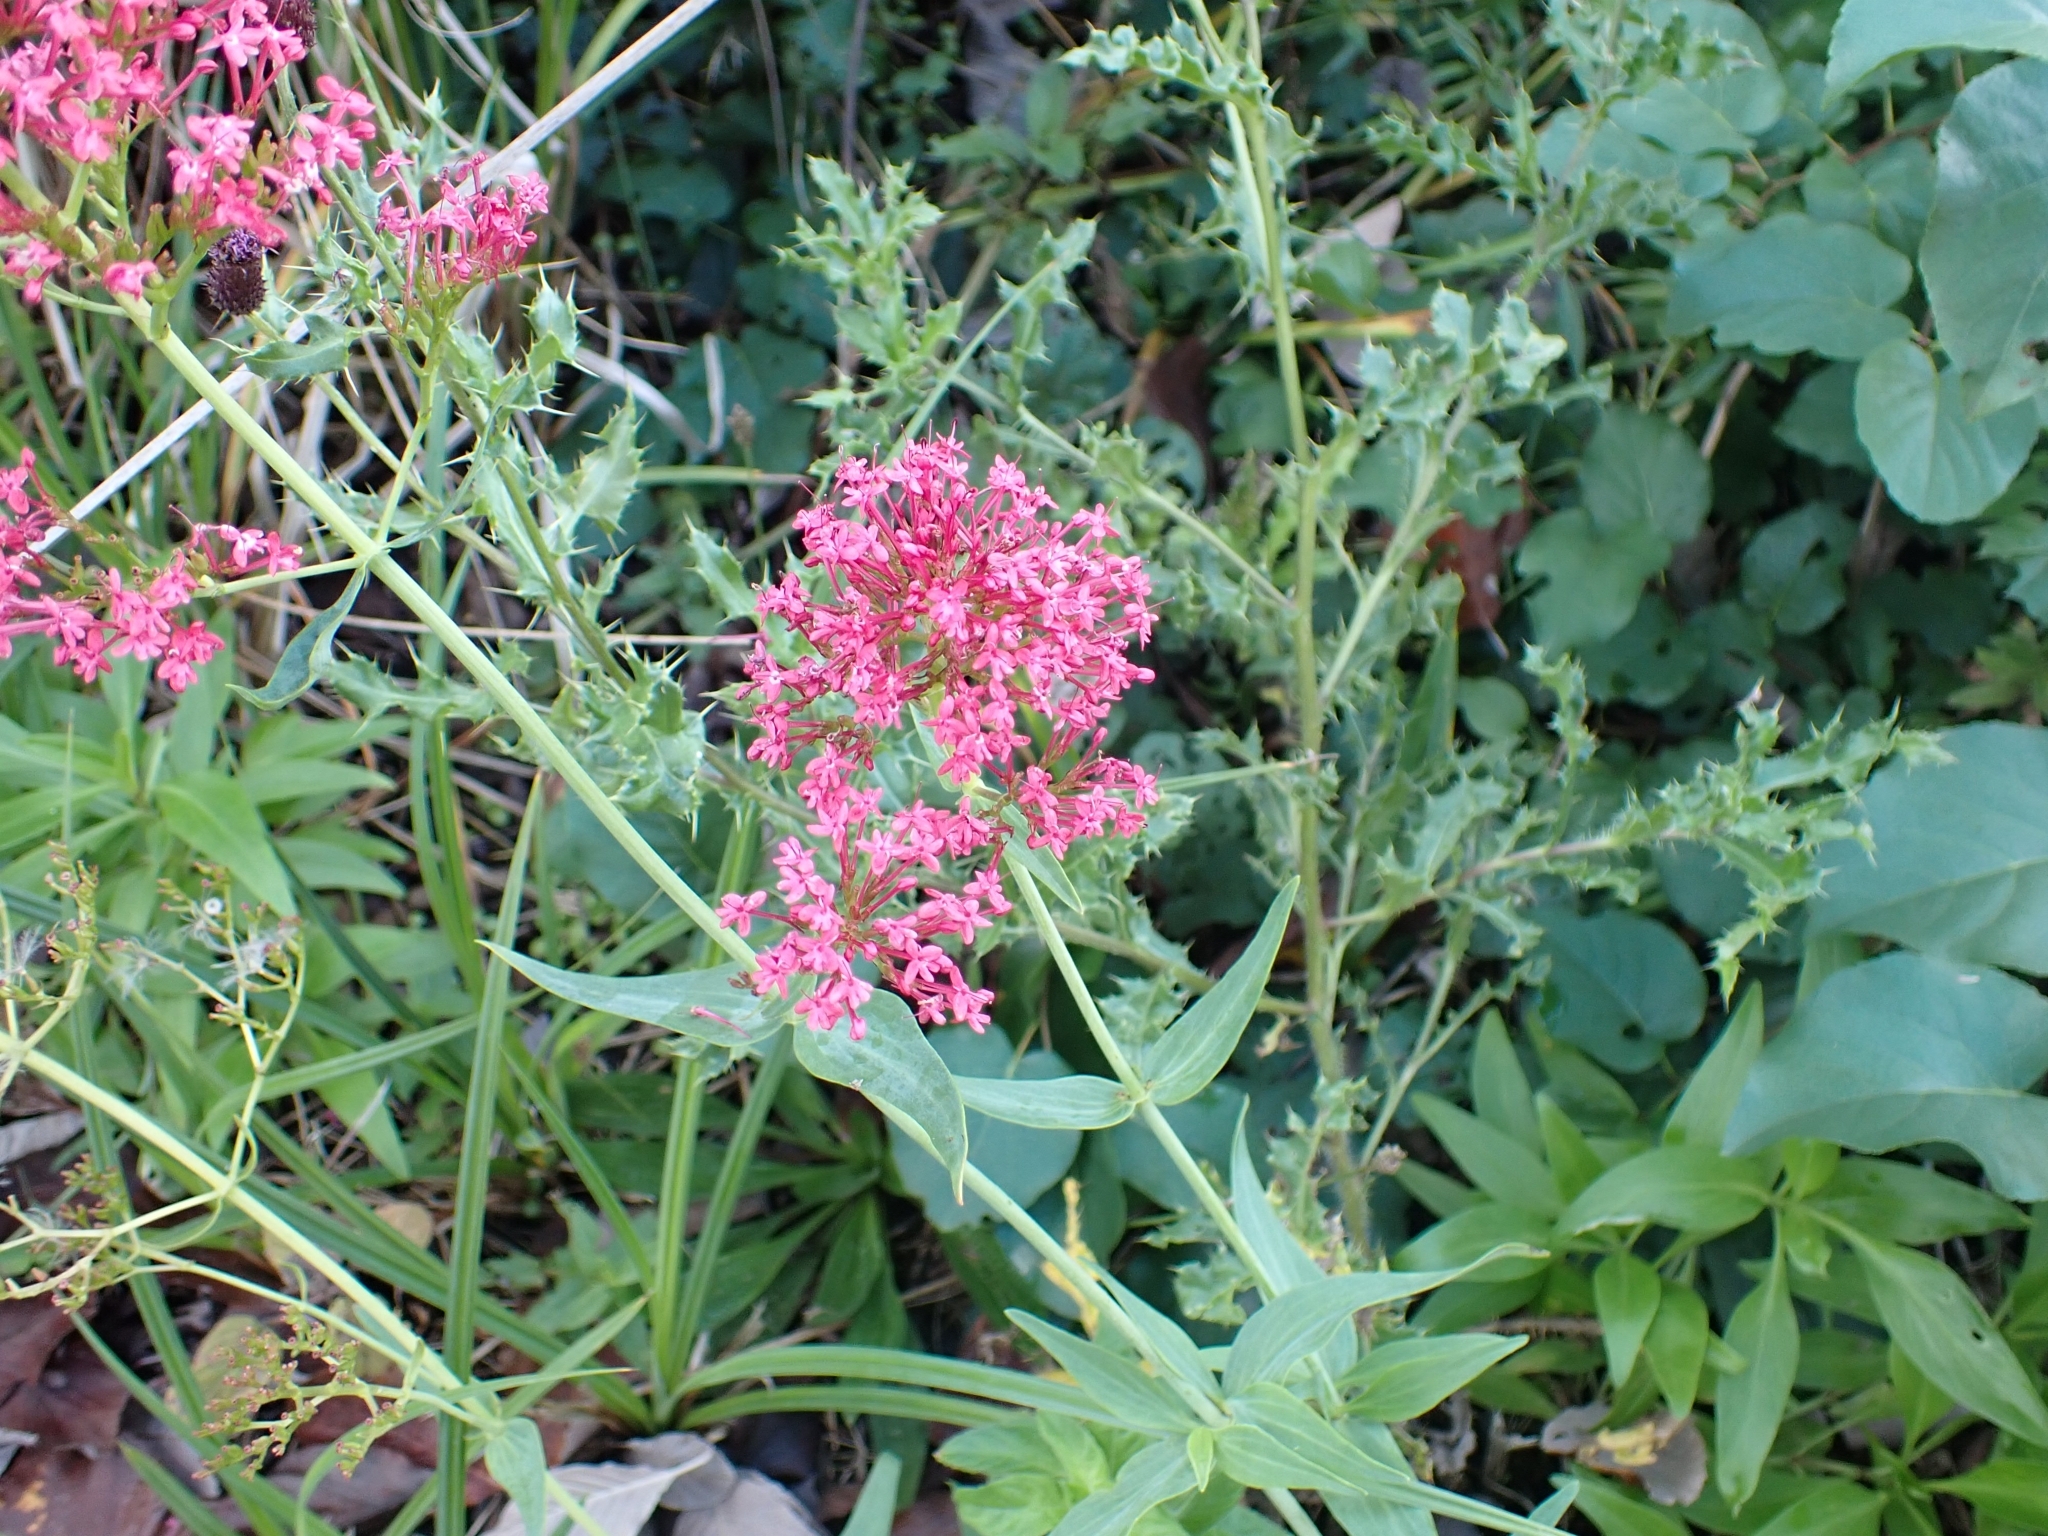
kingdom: Animalia
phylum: Arthropoda
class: Insecta
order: Hemiptera
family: Triozidae
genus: Trioza
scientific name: Trioza centranthi
